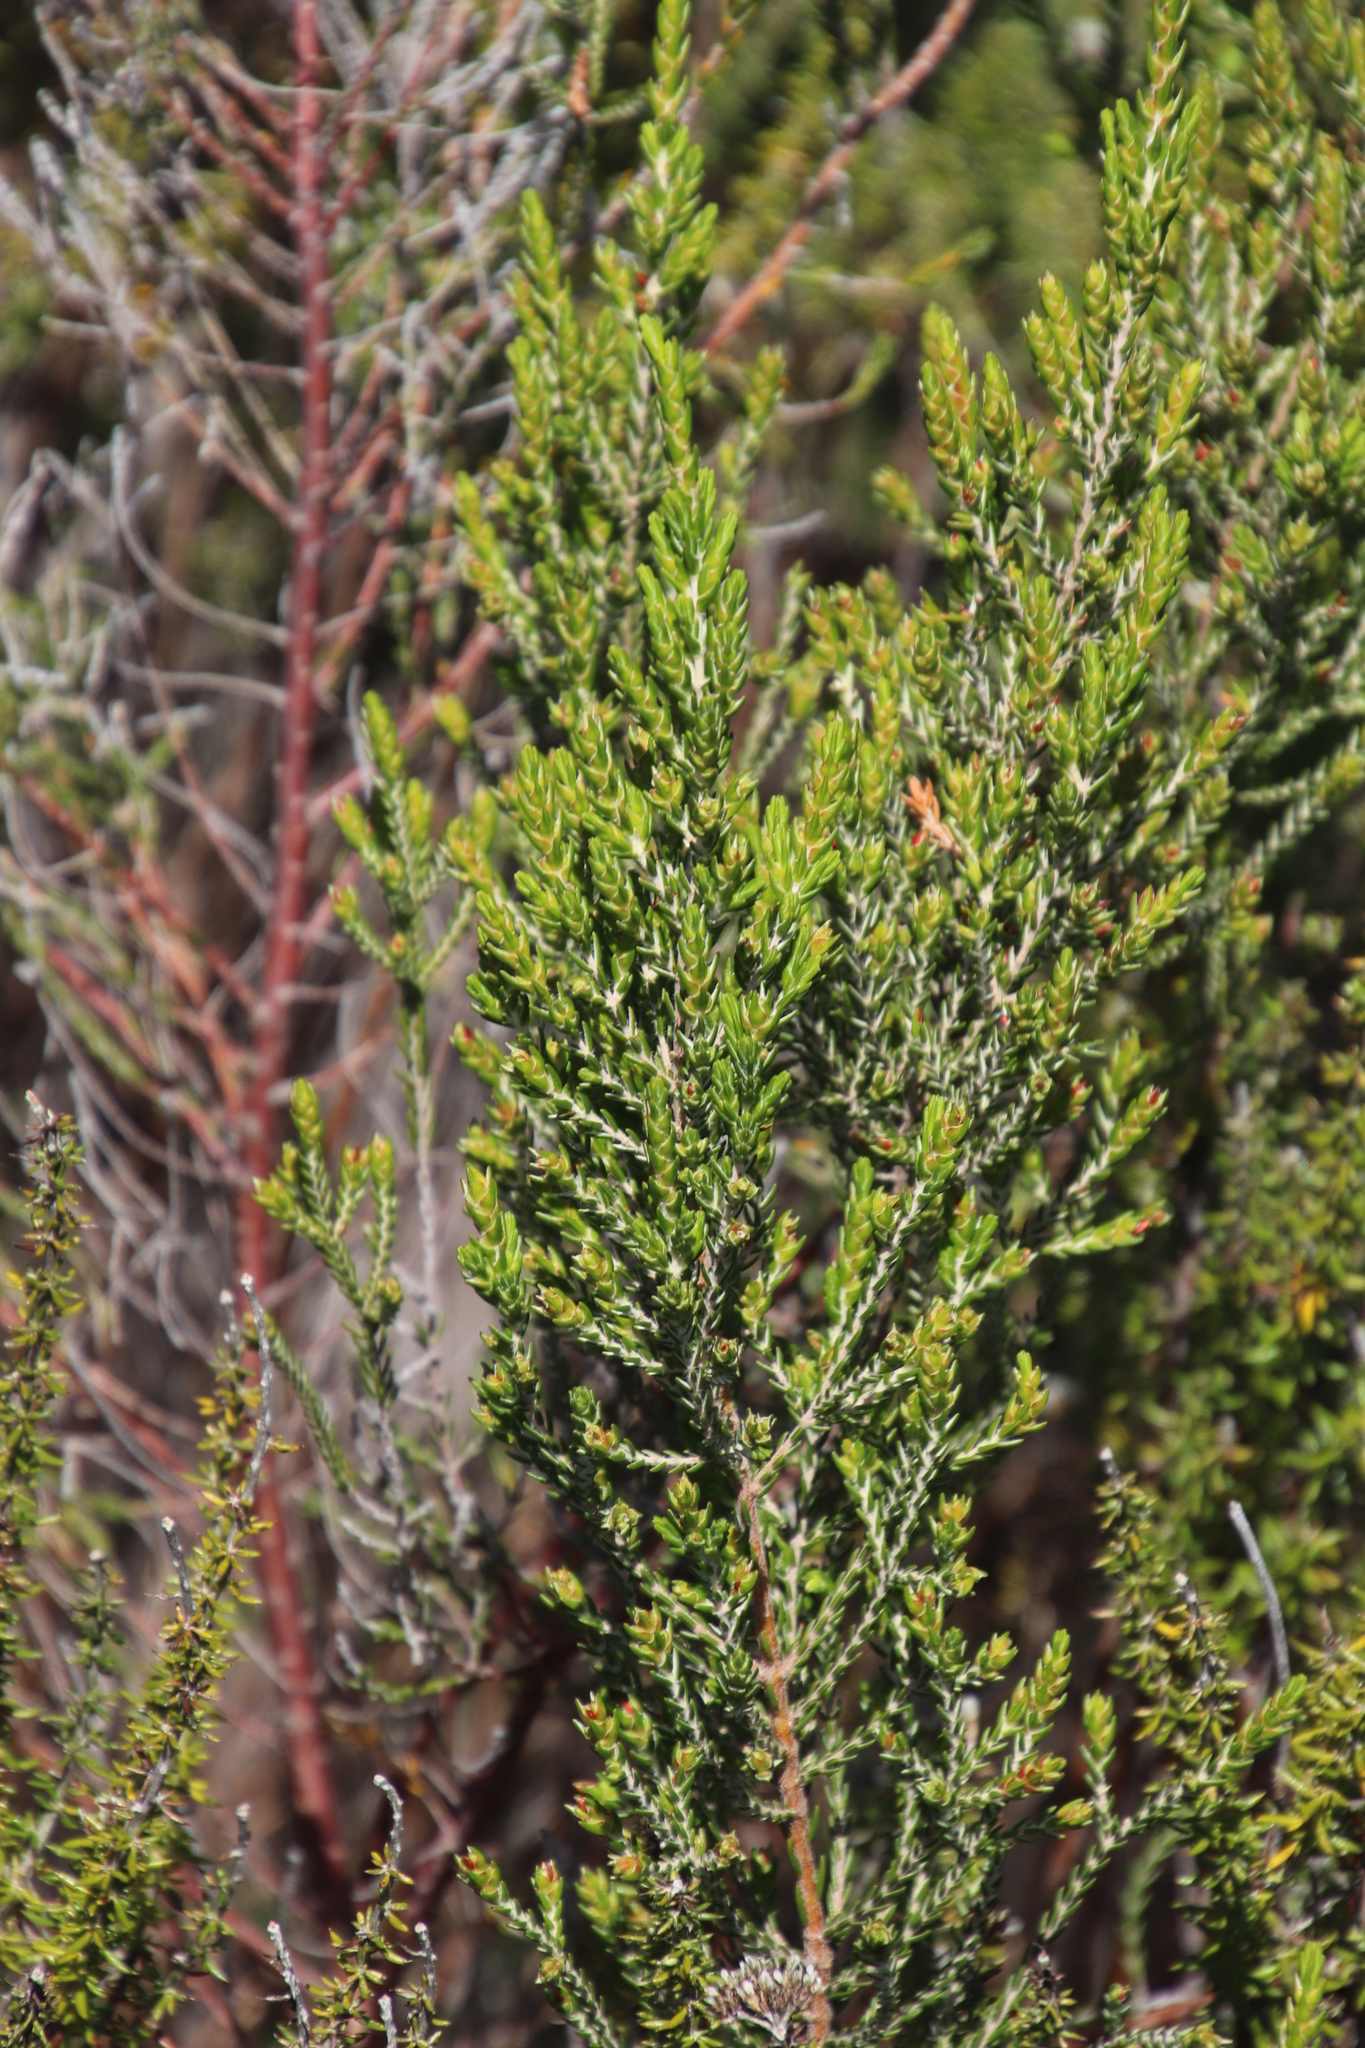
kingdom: Plantae
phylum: Tracheophyta
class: Magnoliopsida
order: Malvales
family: Thymelaeaceae
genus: Passerina
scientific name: Passerina corymbosa
